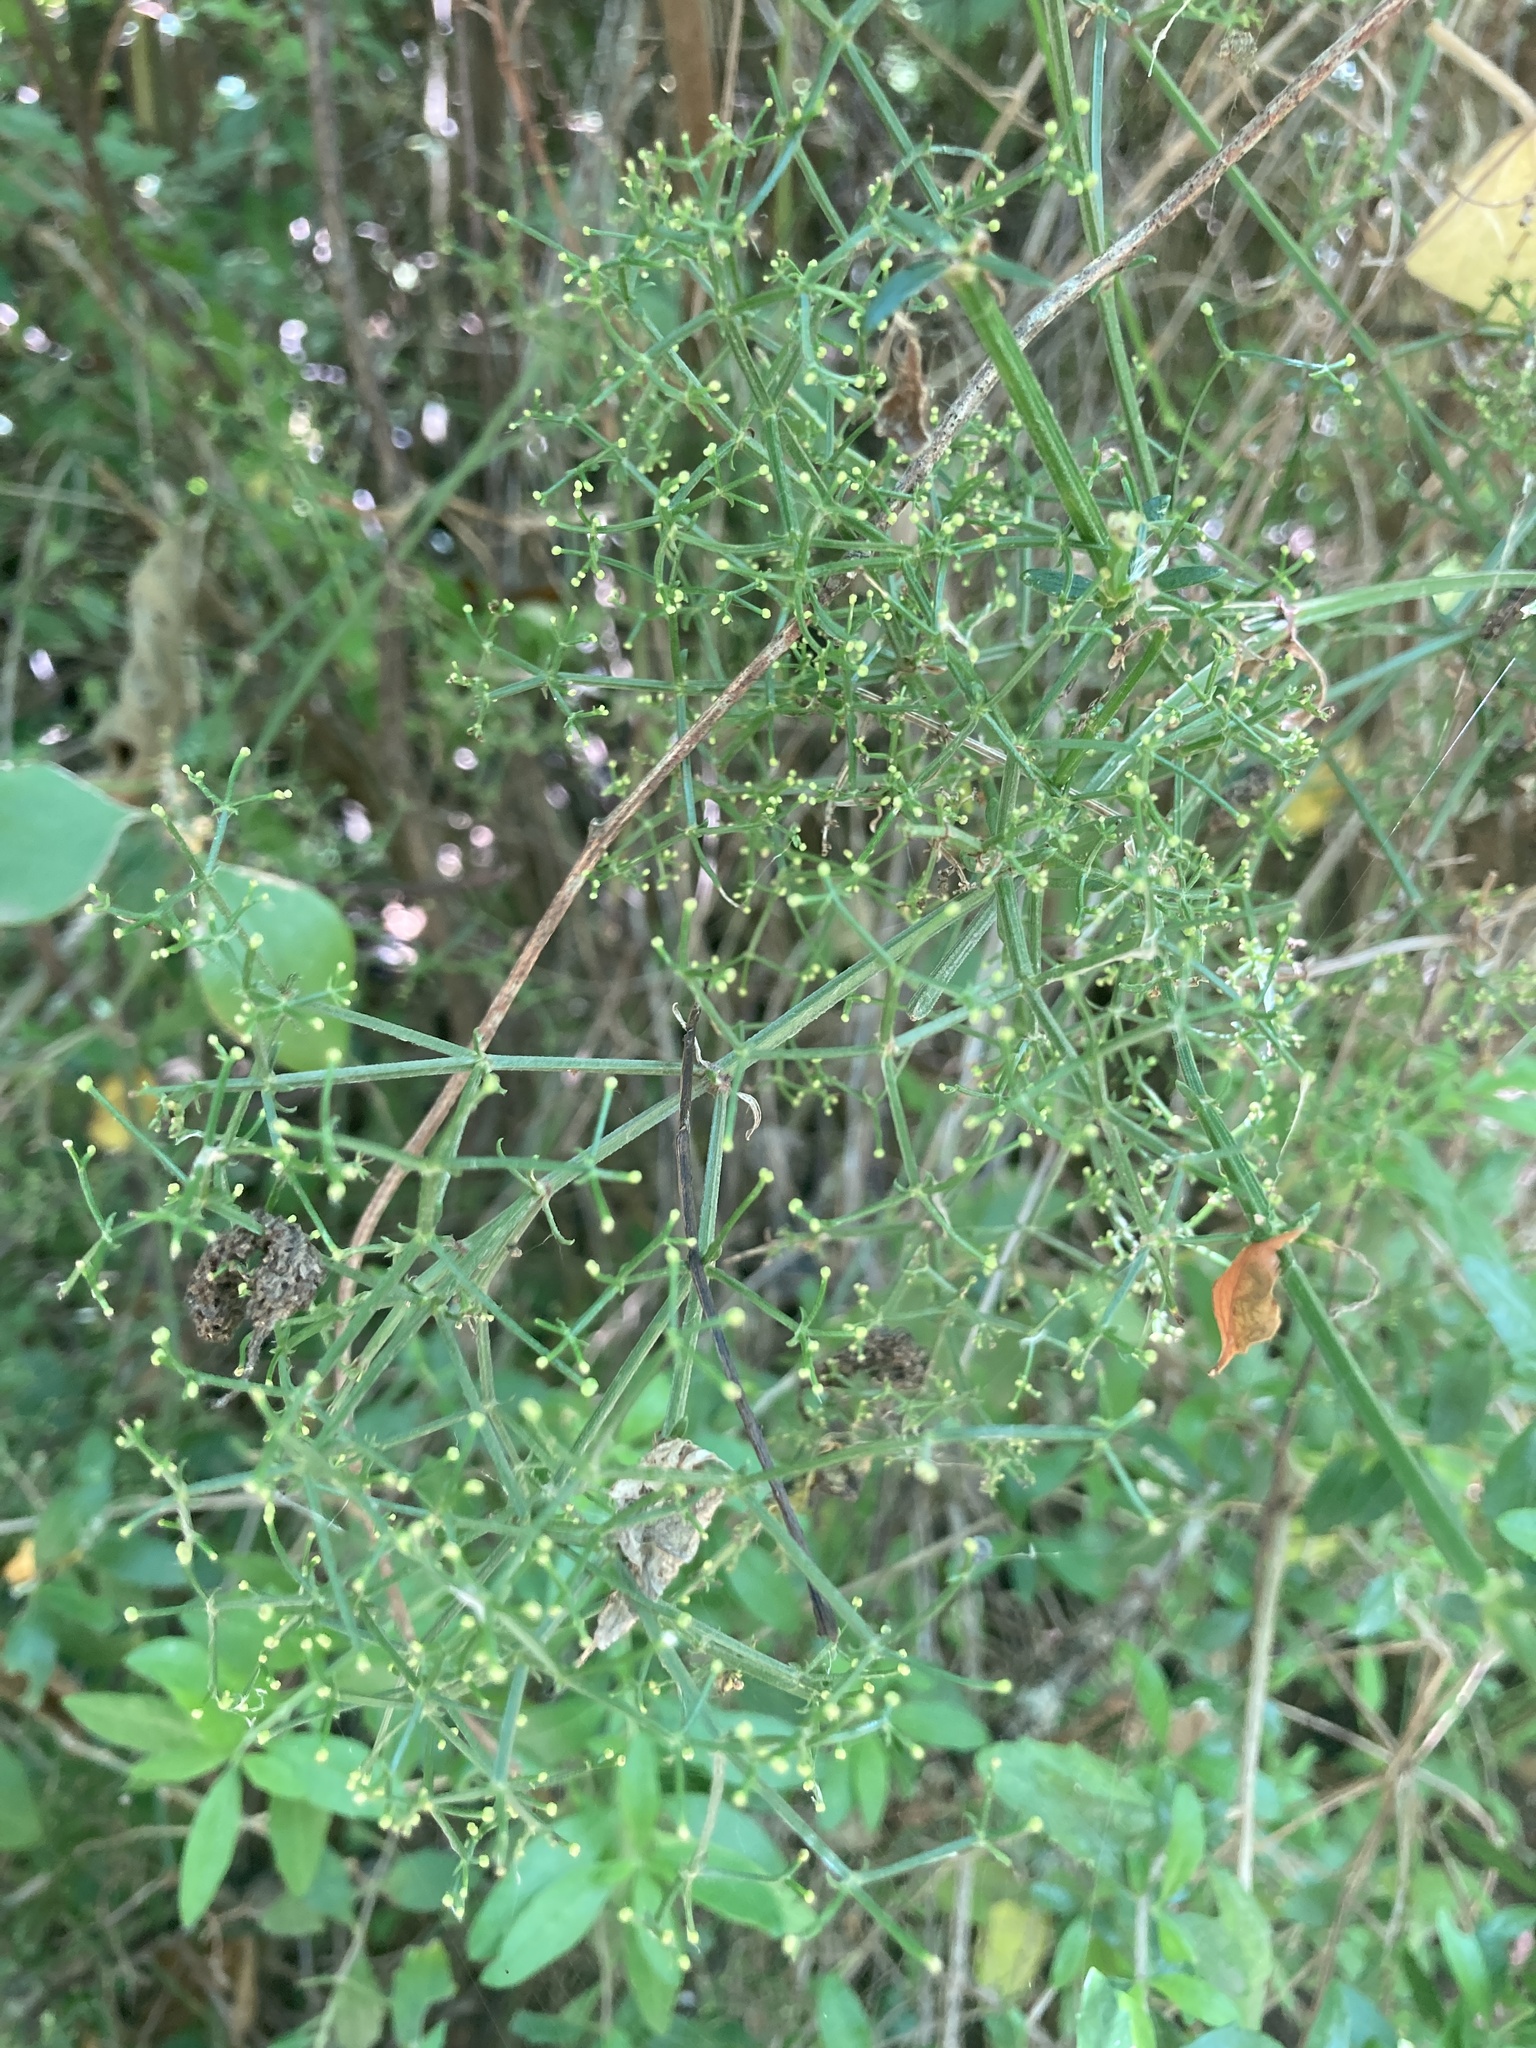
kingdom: Plantae
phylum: Tracheophyta
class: Magnoliopsida
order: Gentianales
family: Rubiaceae
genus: Galium
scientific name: Galium latoramosum
